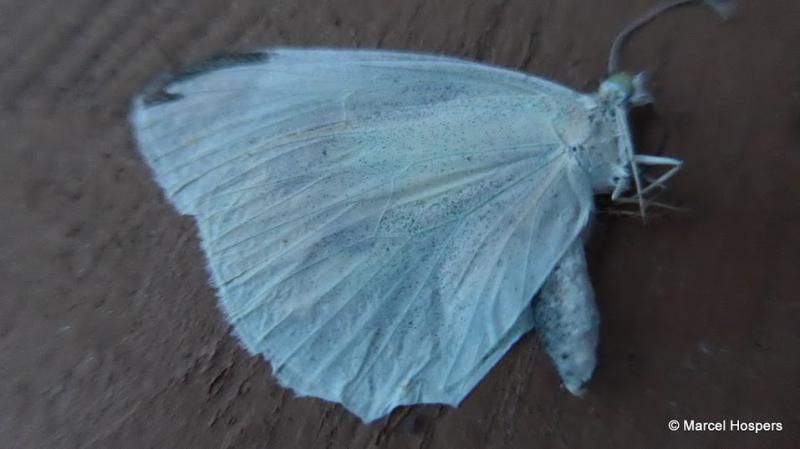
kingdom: Animalia
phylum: Arthropoda
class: Insecta
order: Lepidoptera
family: Pieridae
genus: Pieris
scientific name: Pieris rapae
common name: Small white
